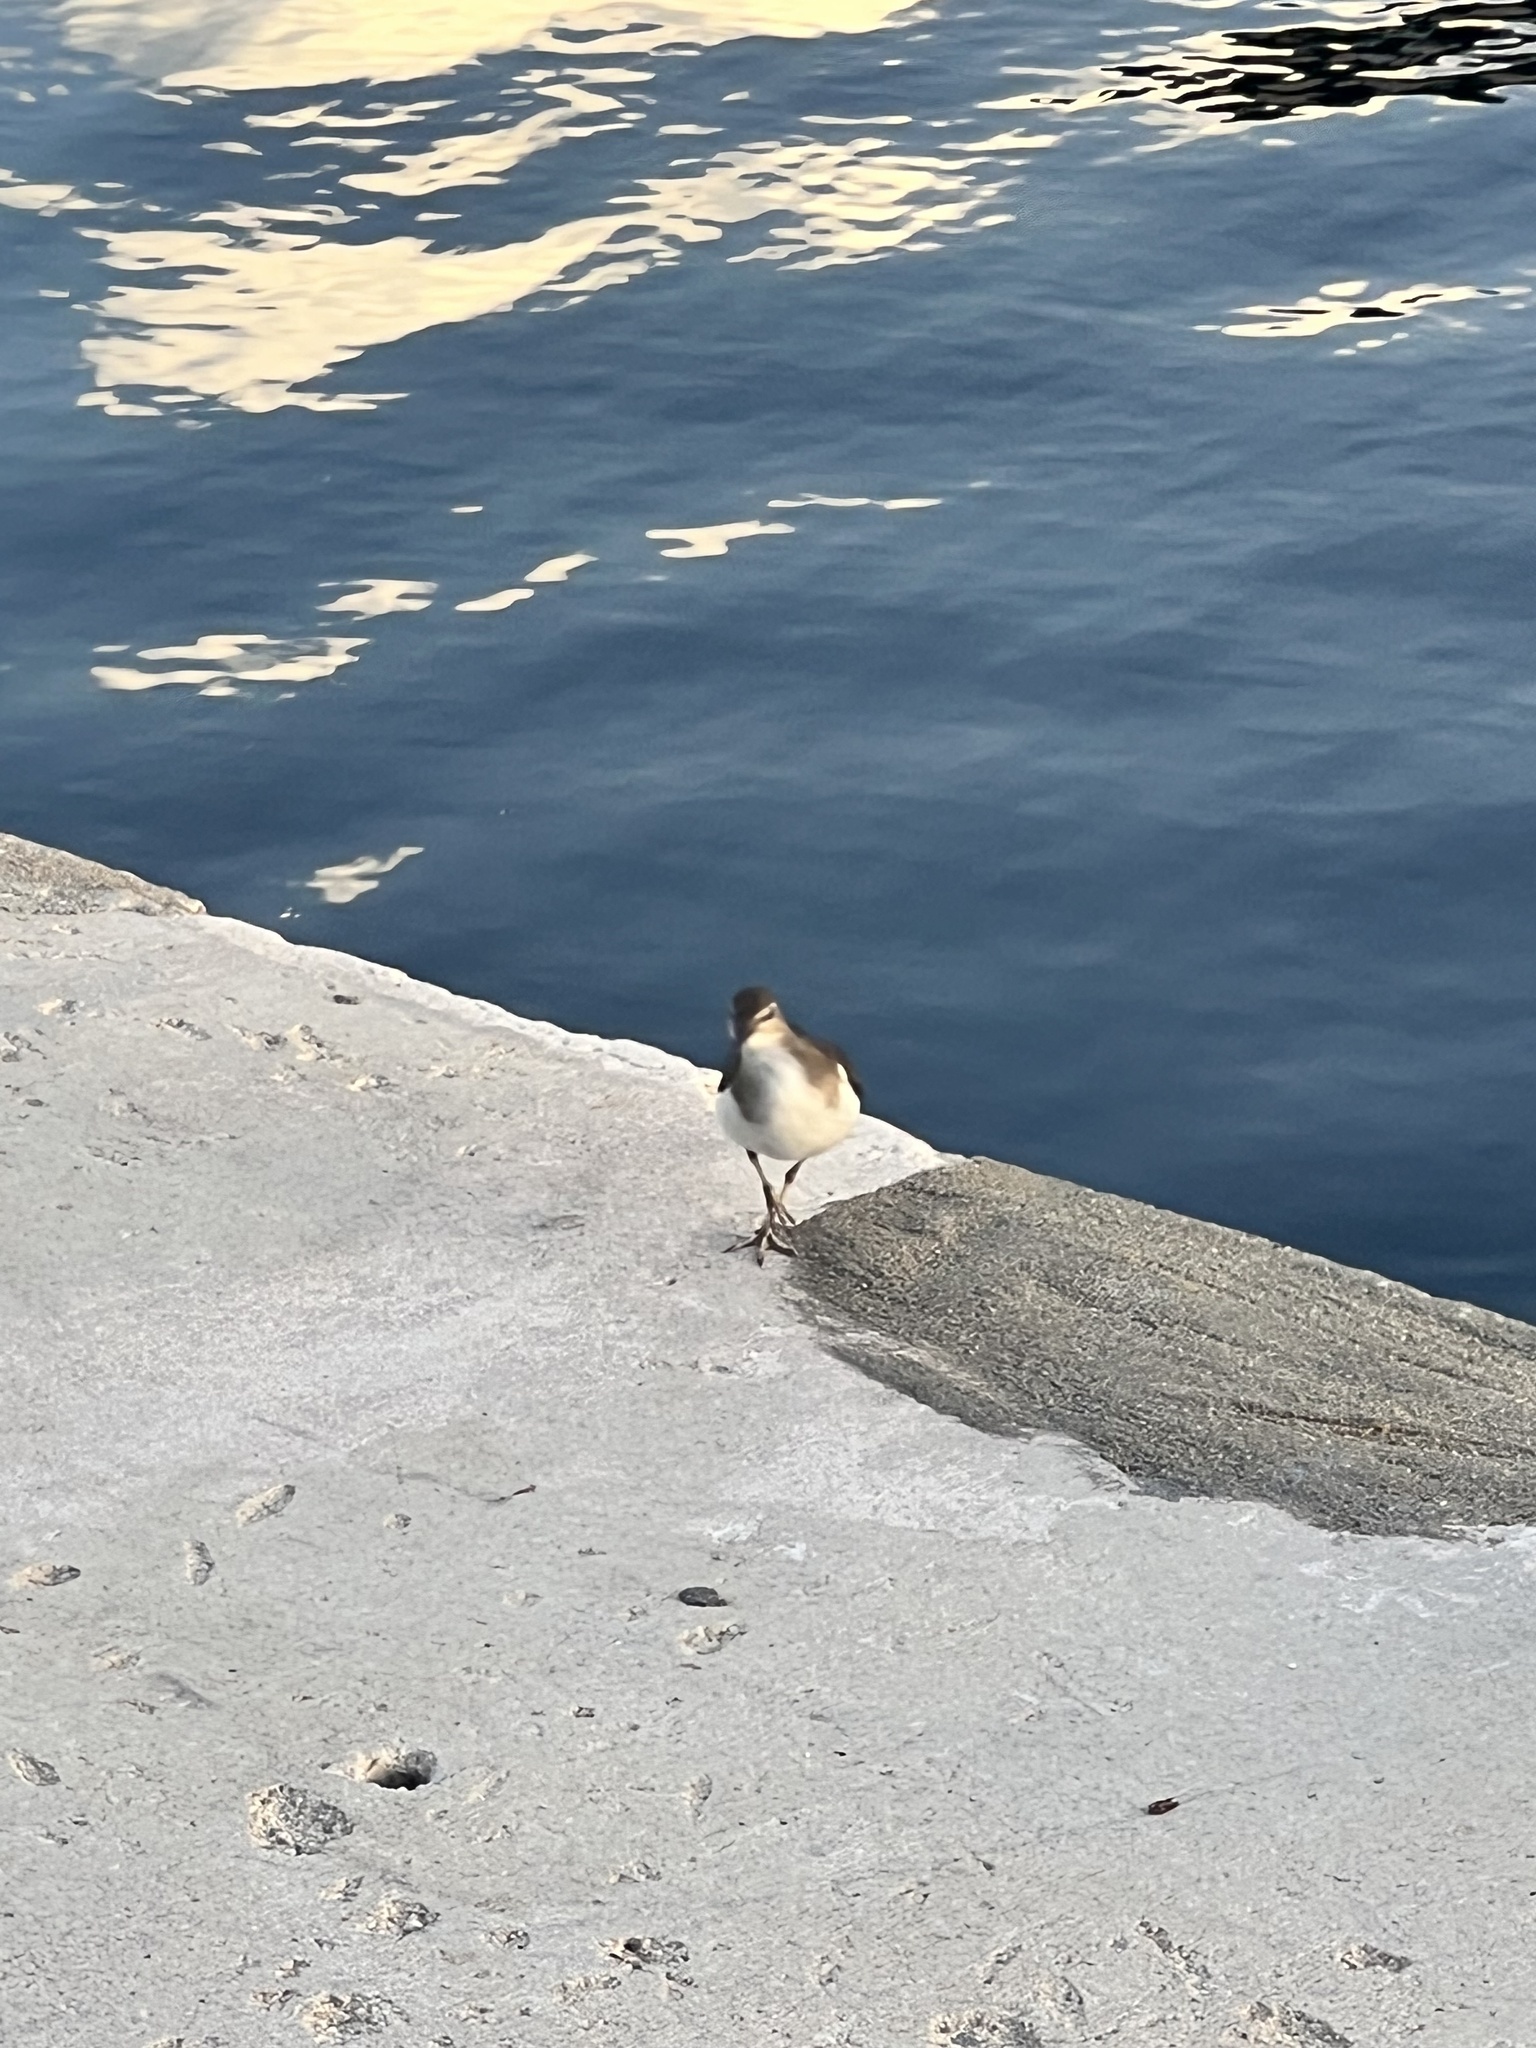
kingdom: Animalia
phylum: Chordata
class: Aves
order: Charadriiformes
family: Scolopacidae
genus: Actitis
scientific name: Actitis macularius
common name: Spotted sandpiper
